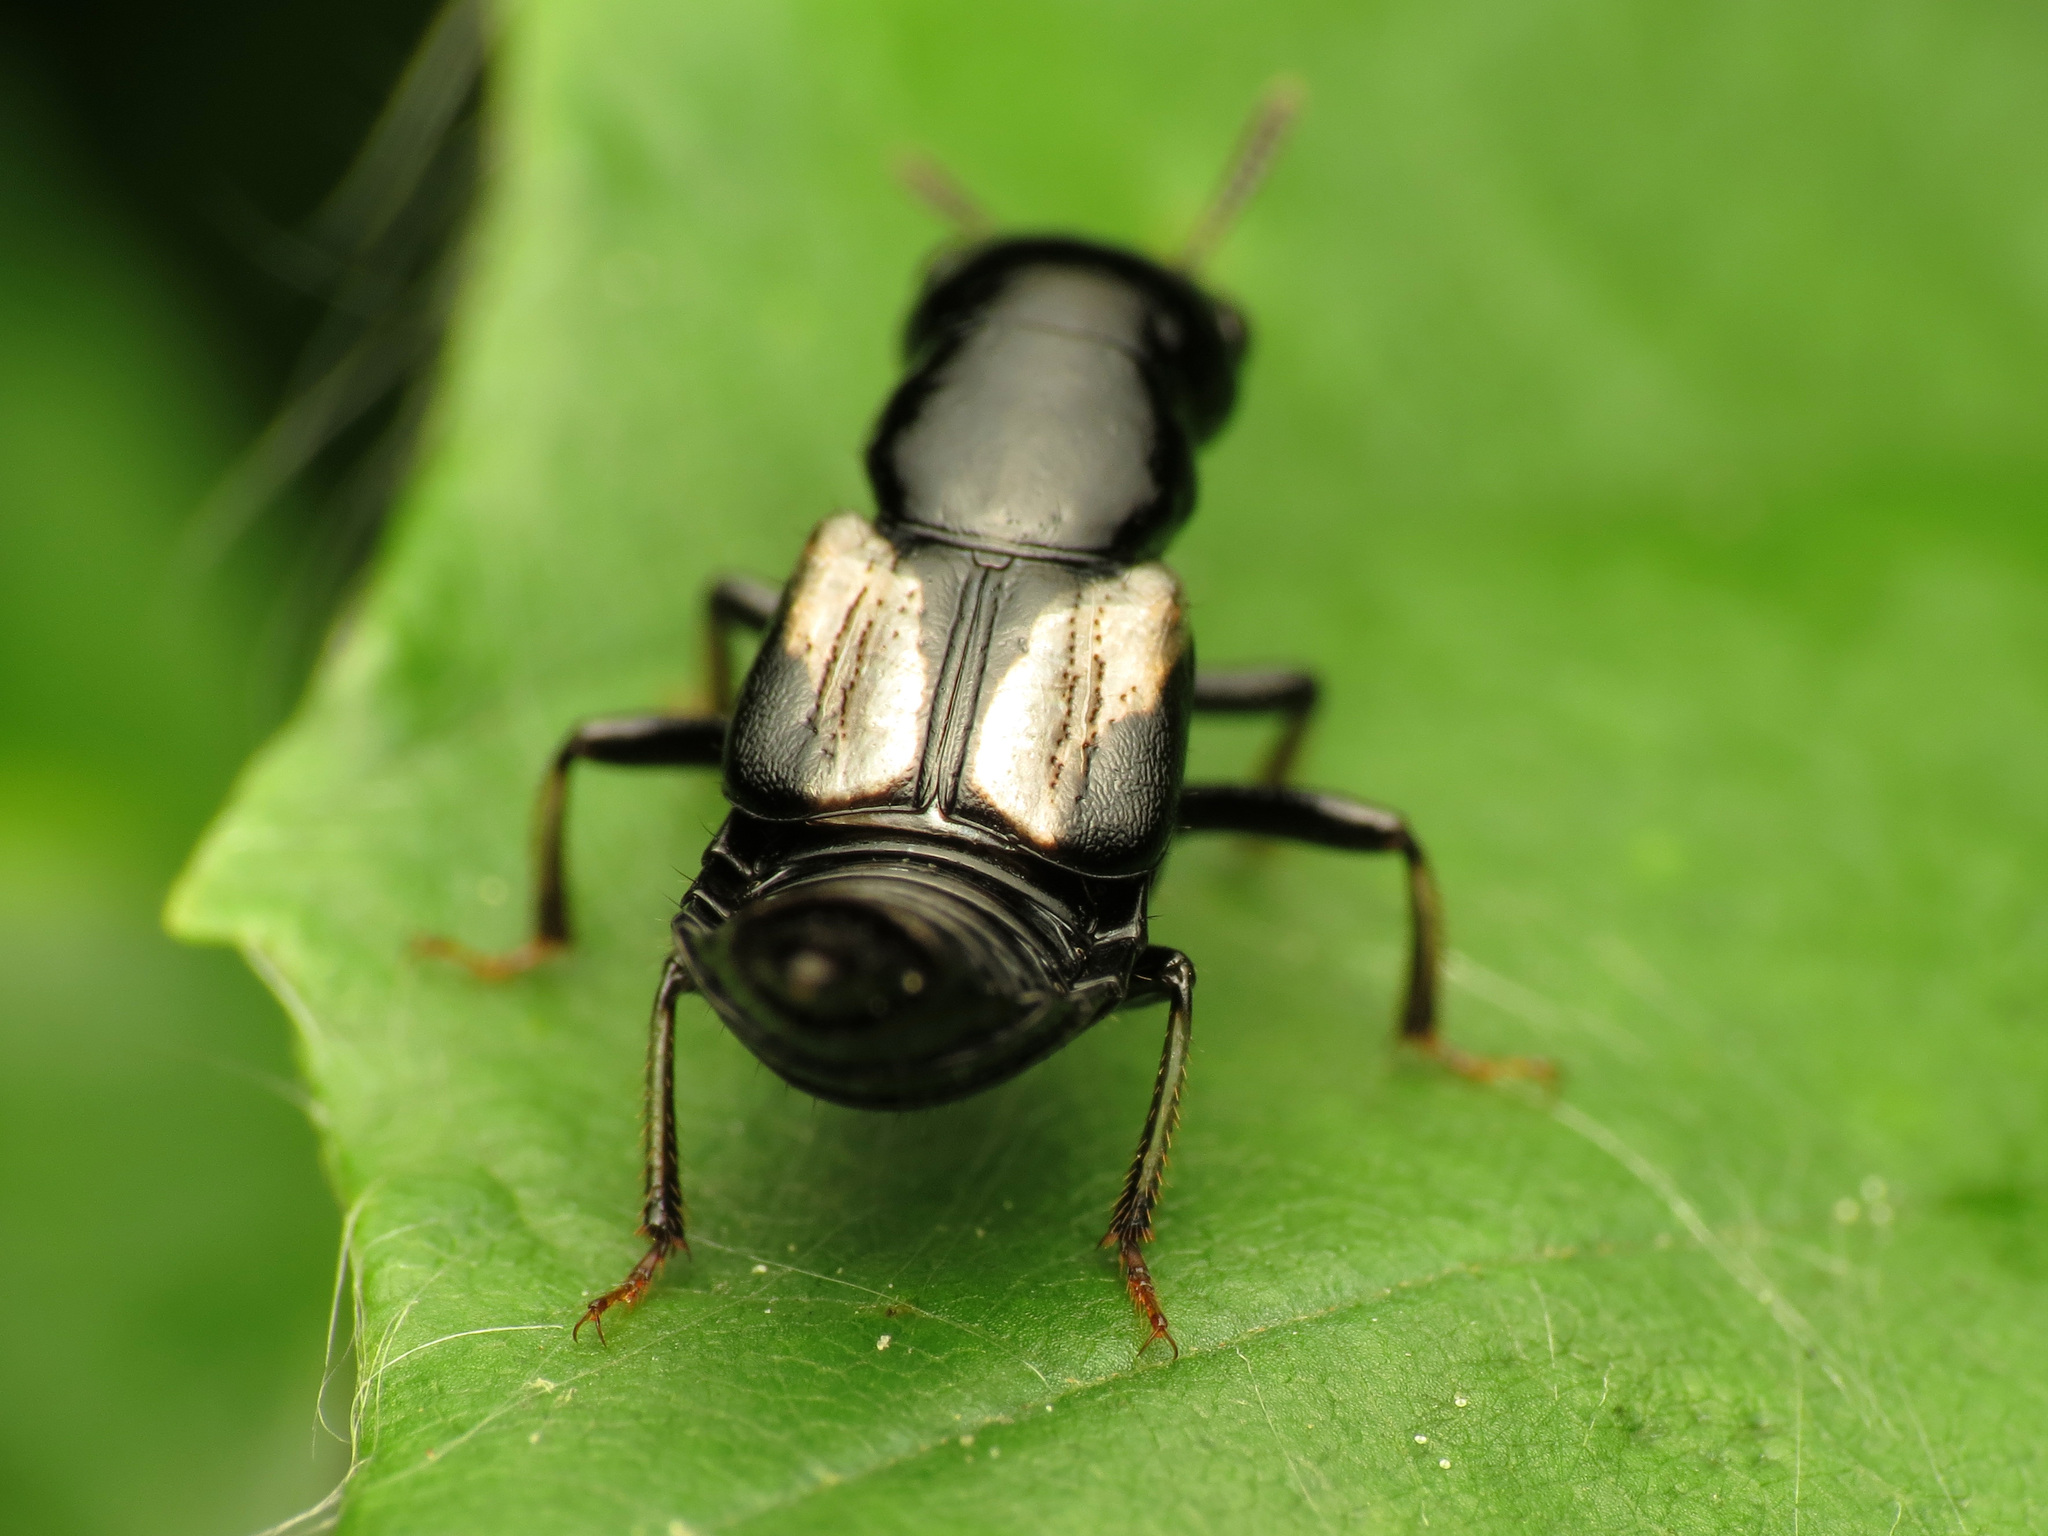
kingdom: Animalia
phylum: Arthropoda
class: Insecta
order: Coleoptera
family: Staphylinidae
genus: Oxyporus
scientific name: Oxyporus femoralis
